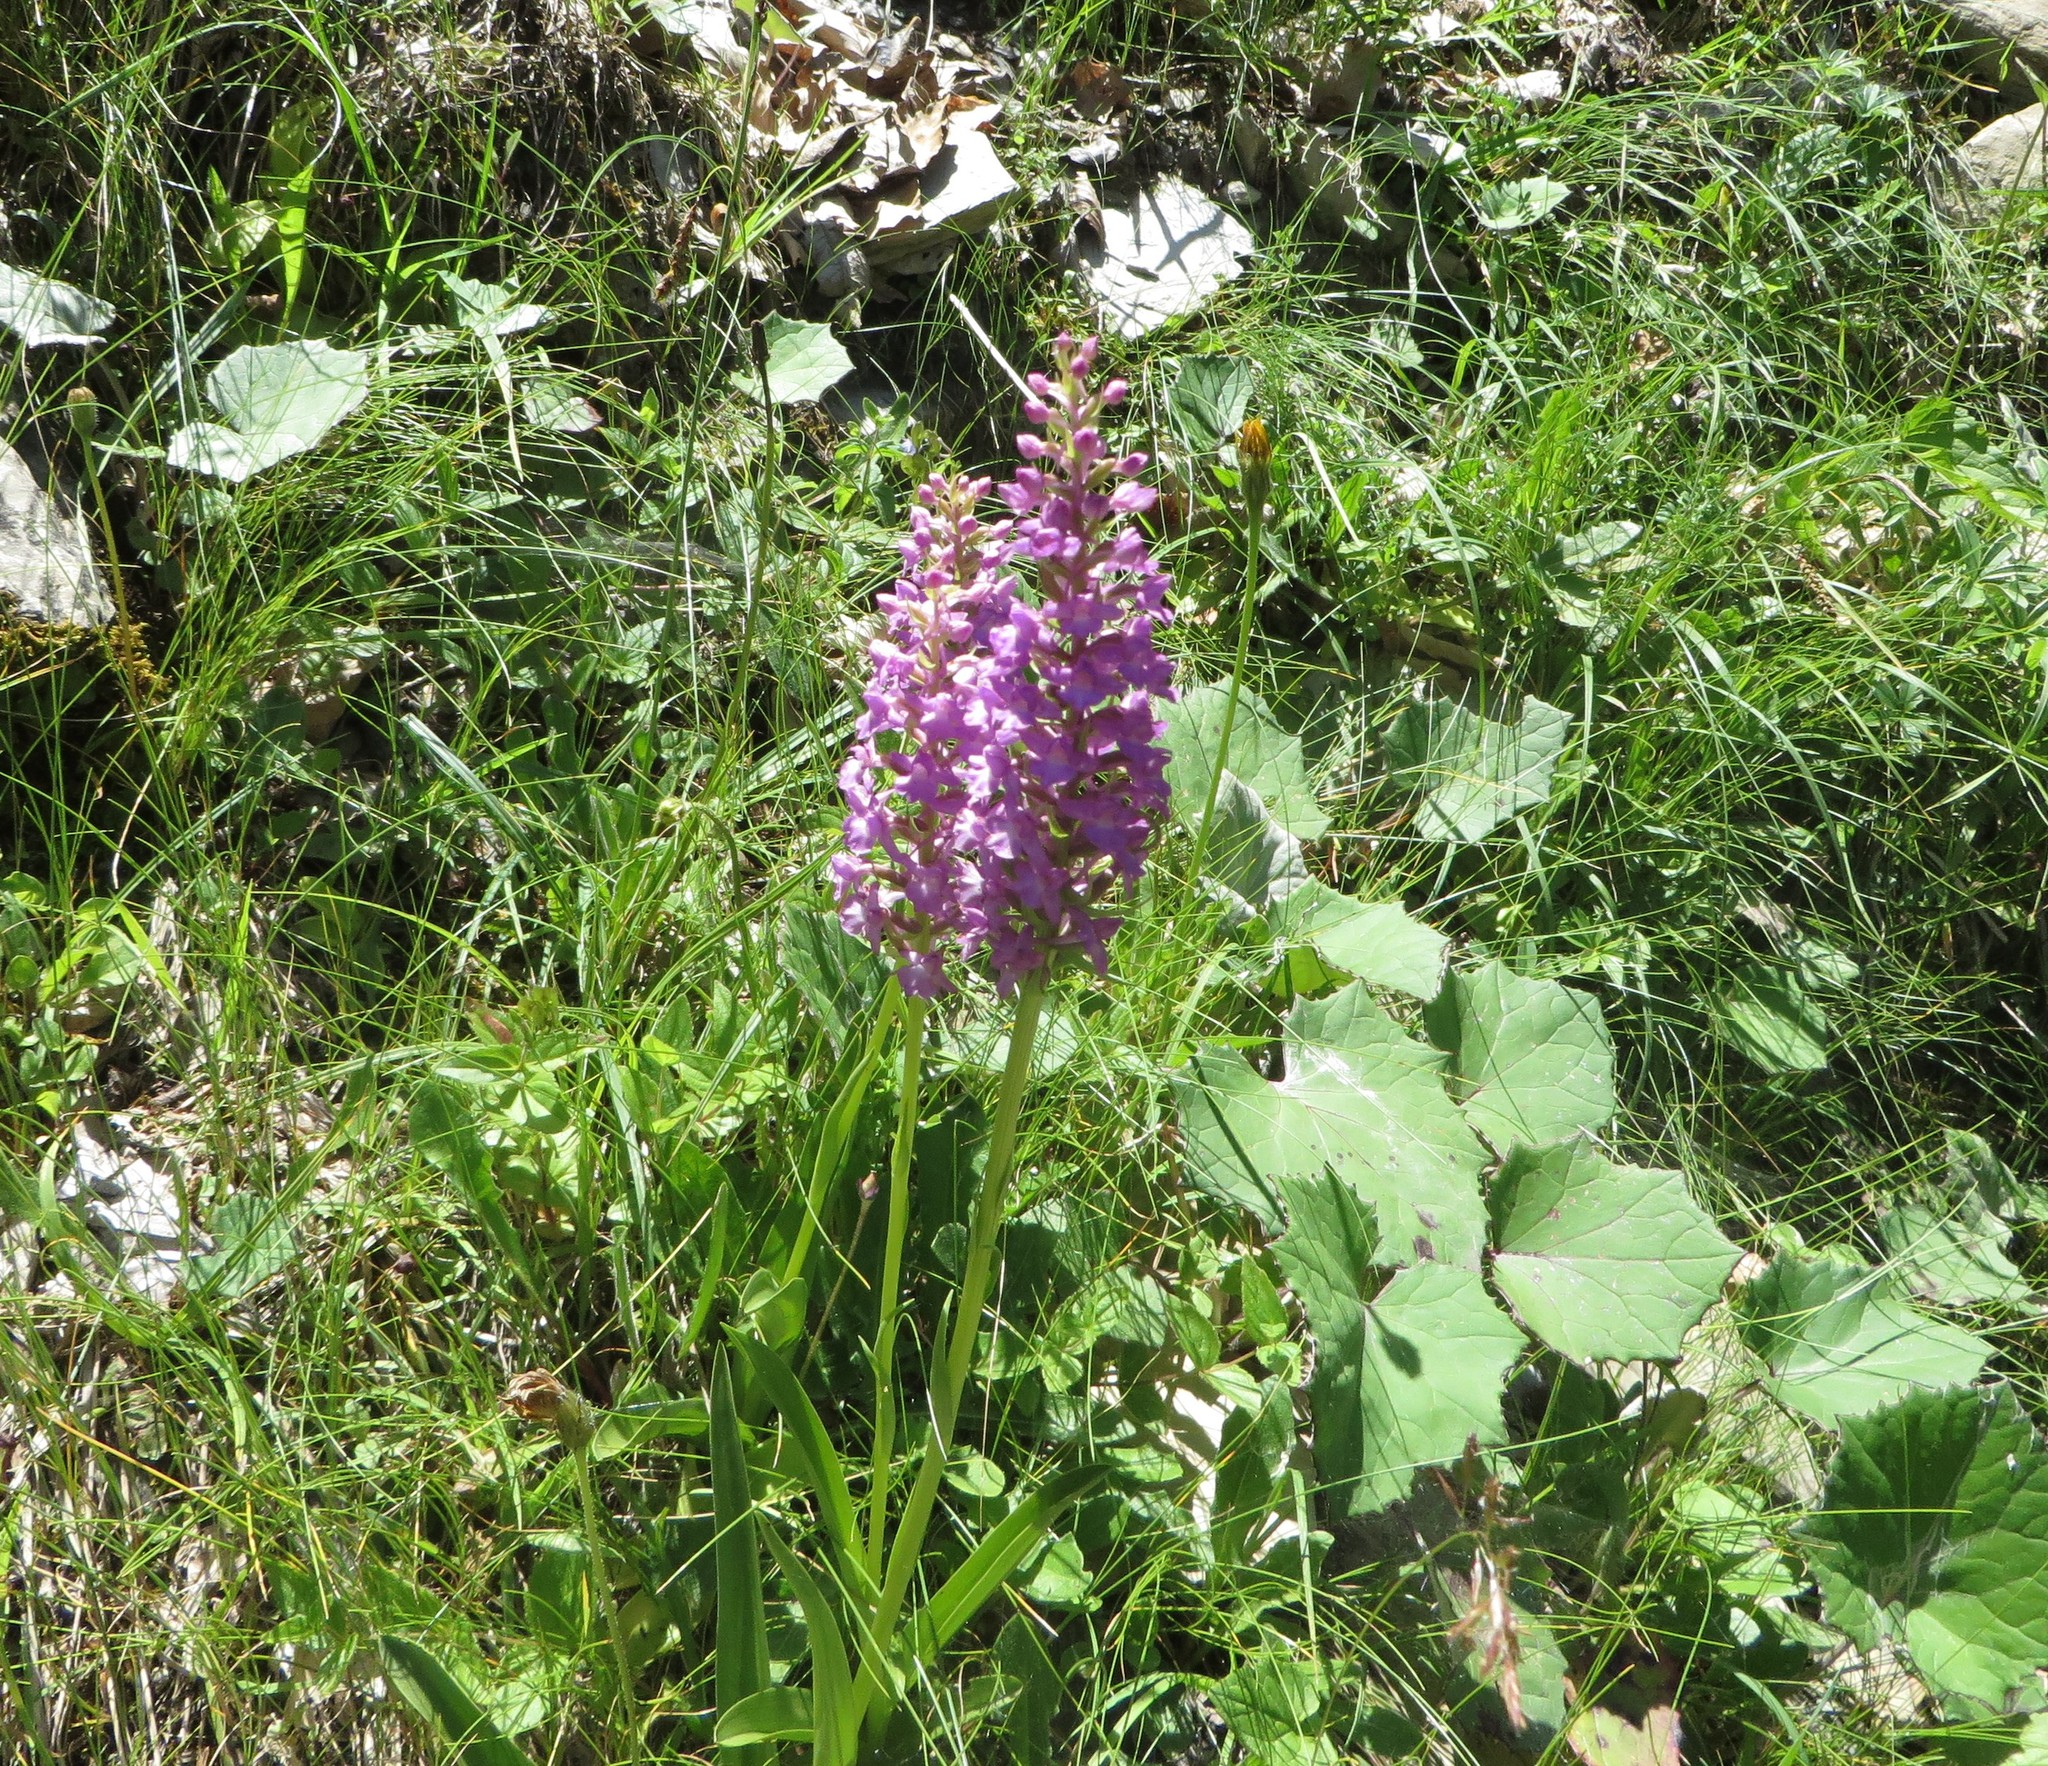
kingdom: Plantae
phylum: Tracheophyta
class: Liliopsida
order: Asparagales
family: Orchidaceae
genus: Gymnadenia
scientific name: Gymnadenia conopsea
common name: Fragrant orchid
